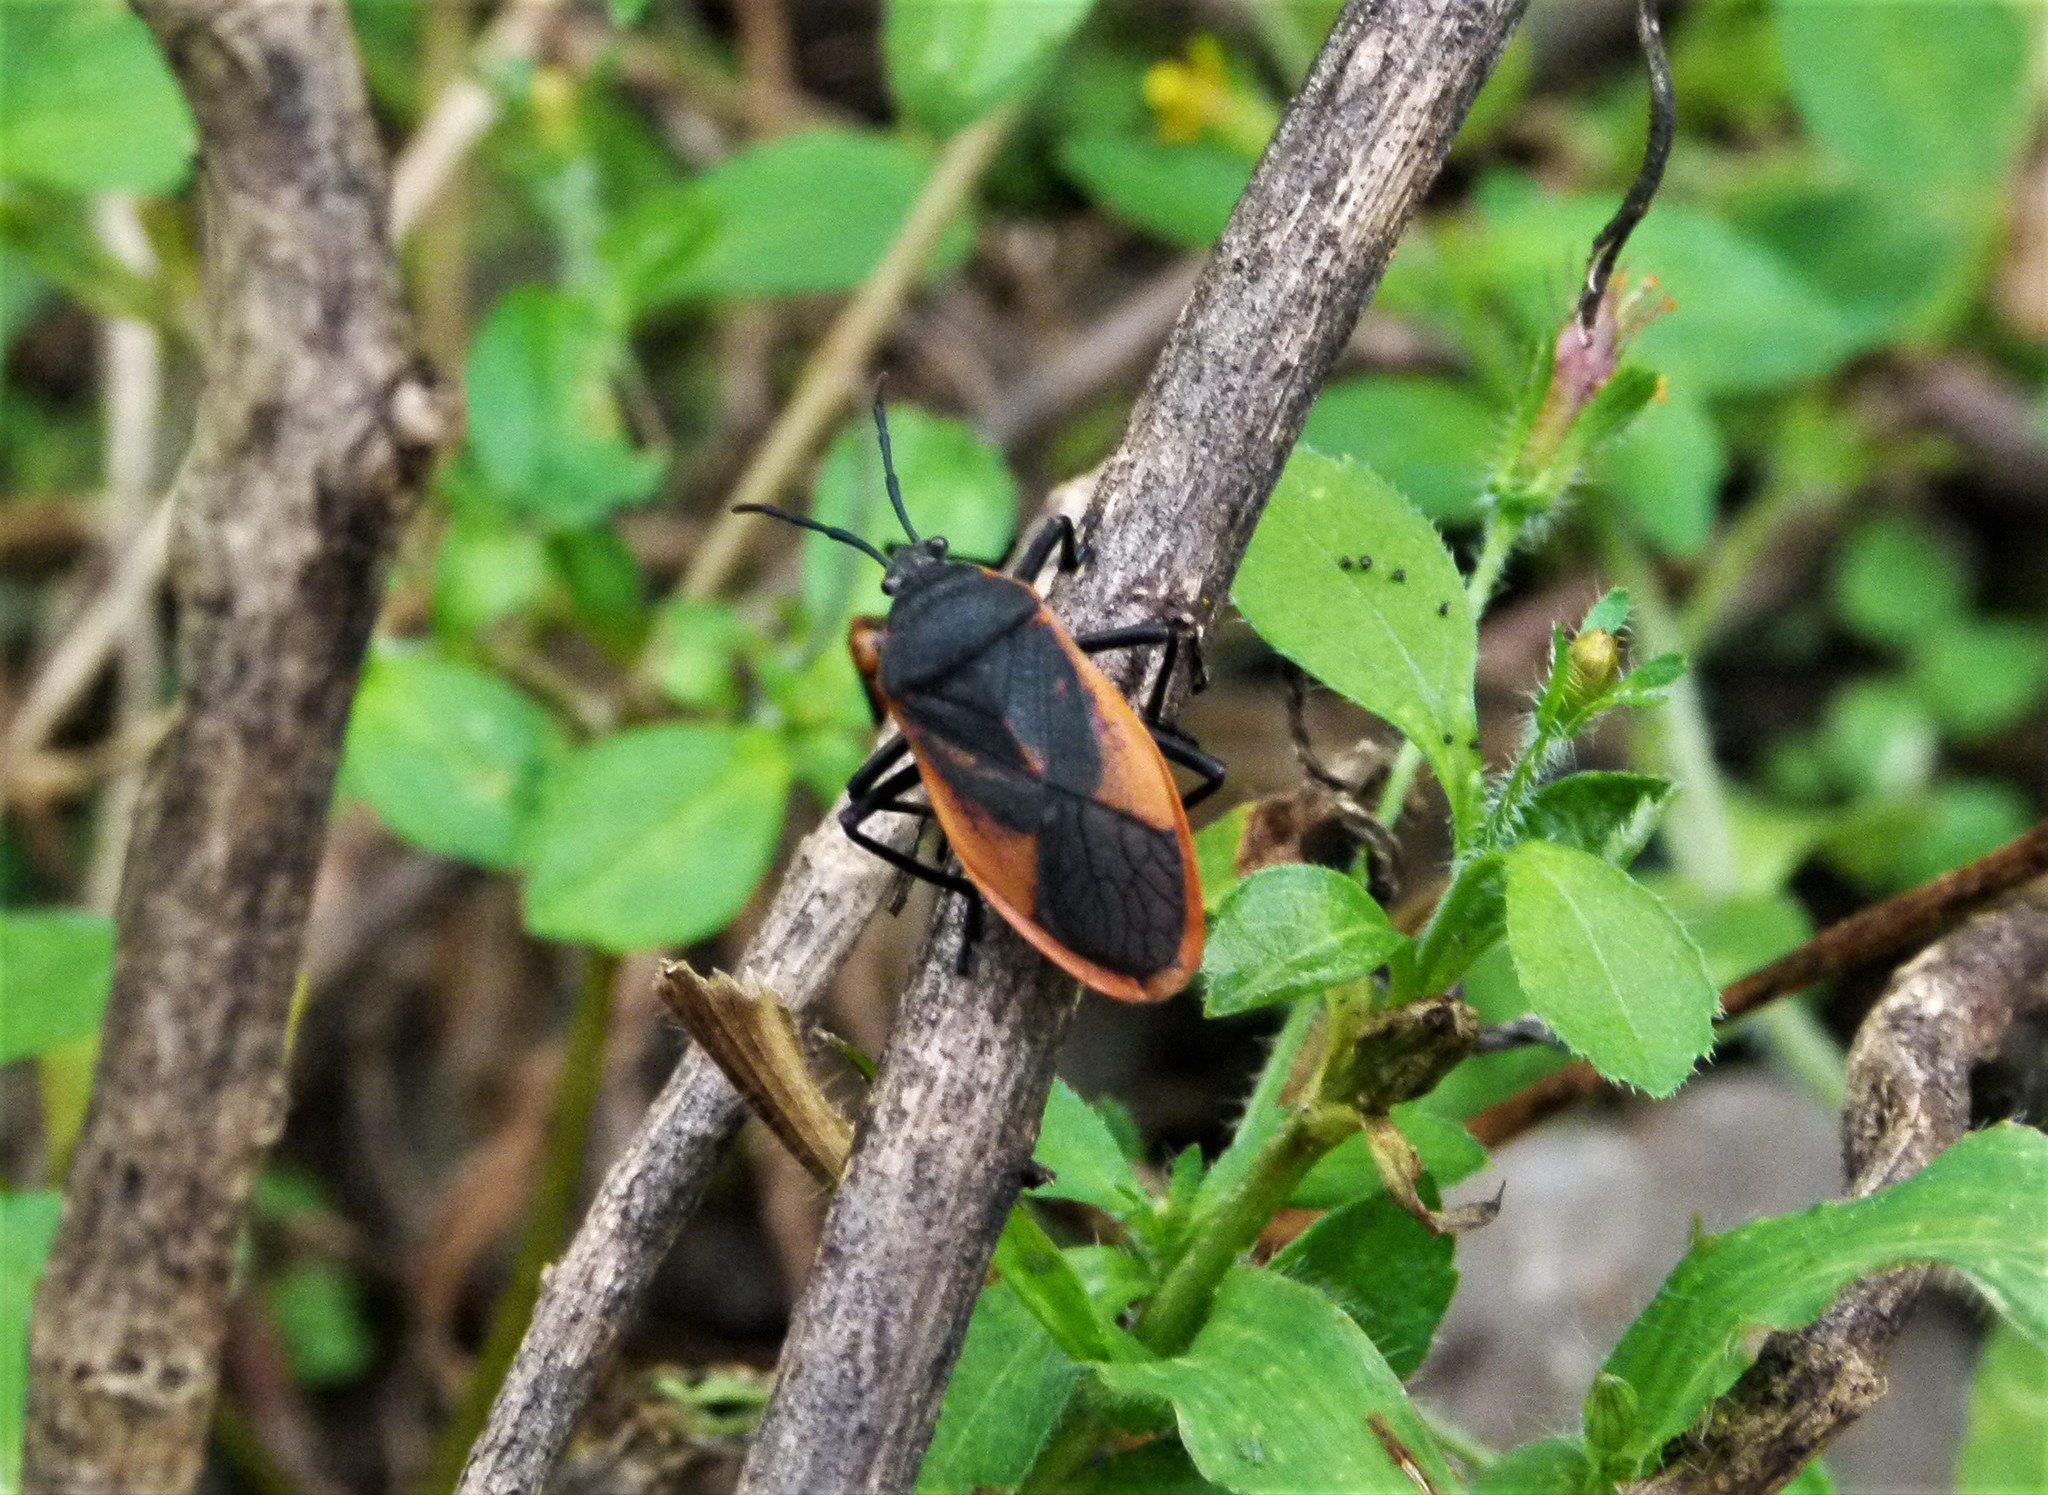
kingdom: Animalia
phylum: Arthropoda
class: Insecta
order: Hemiptera
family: Largidae
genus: Largus
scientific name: Largus rufipennis
